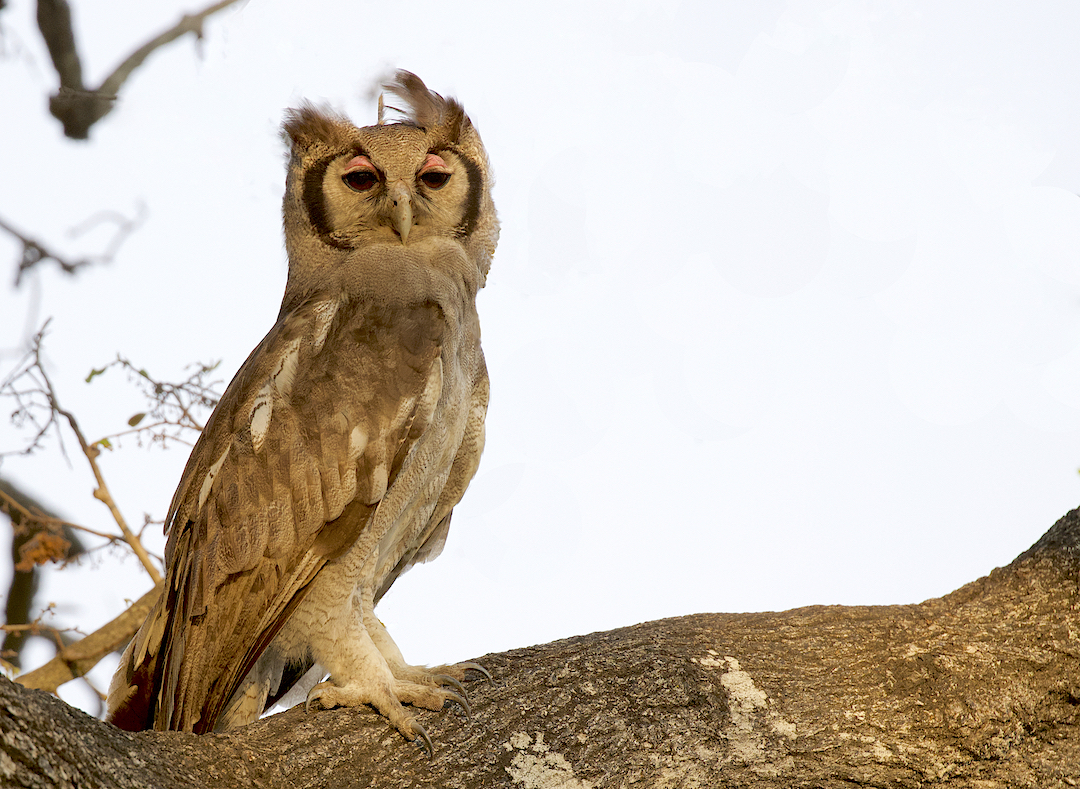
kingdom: Animalia
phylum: Chordata
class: Aves
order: Strigiformes
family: Strigidae
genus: Bubo
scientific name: Bubo lacteus
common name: Verreaux's eagle-owl
